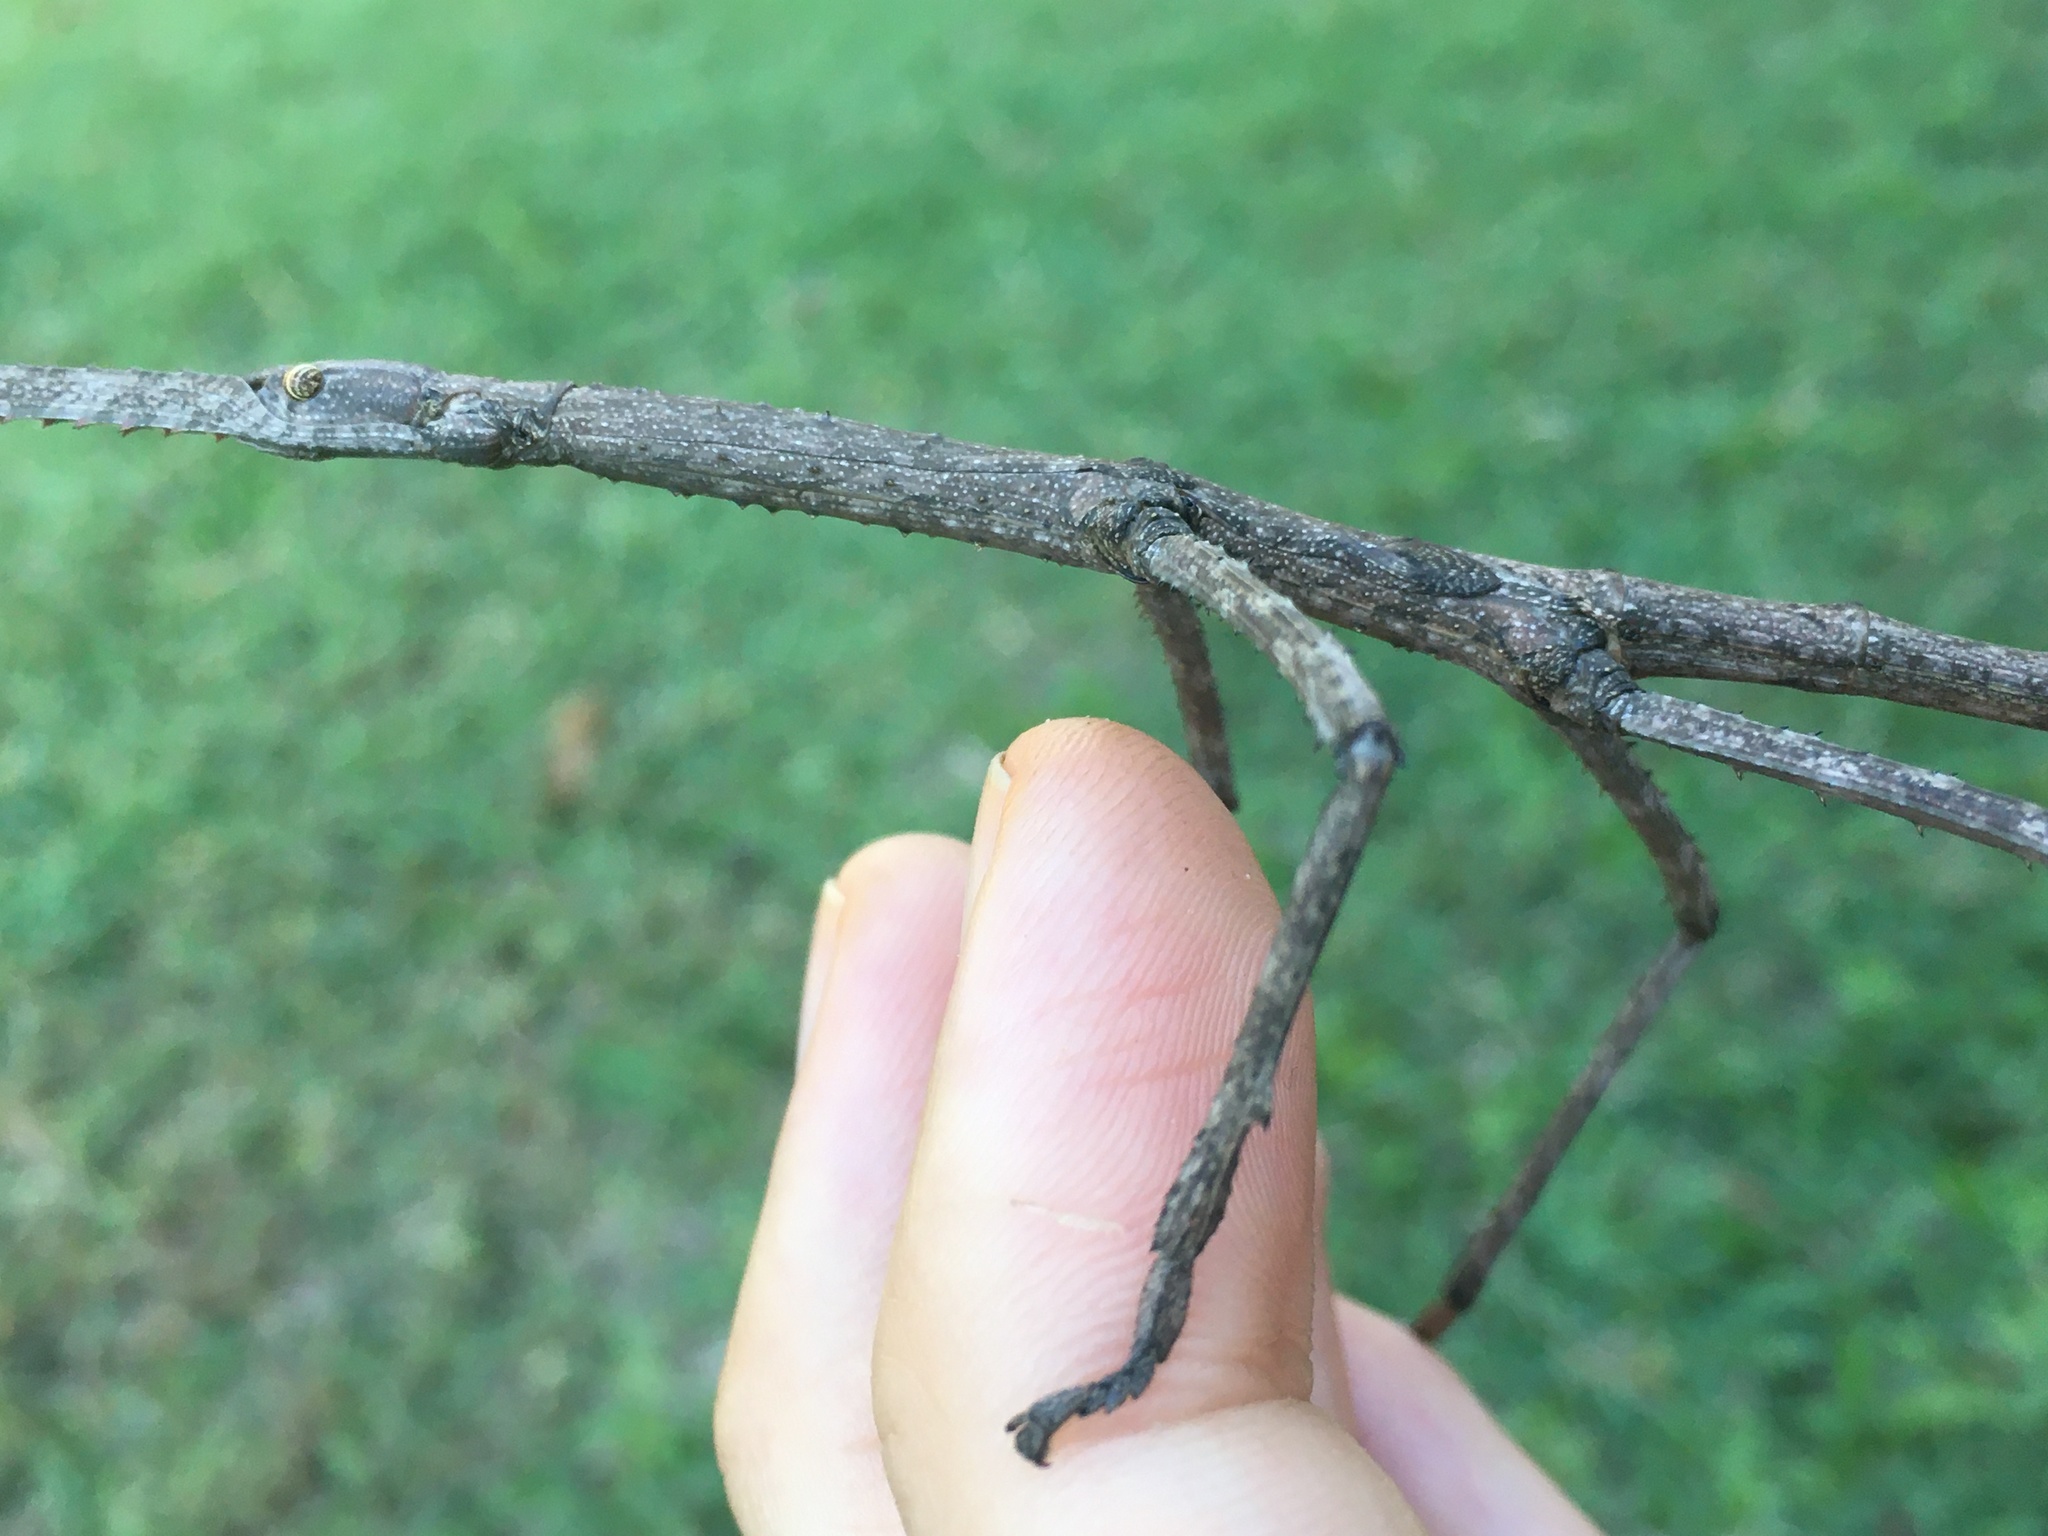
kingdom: Animalia
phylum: Arthropoda
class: Insecta
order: Phasmida
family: Phasmatidae
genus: Acrophylla
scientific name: Acrophylla titan
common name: Titan stick insect
